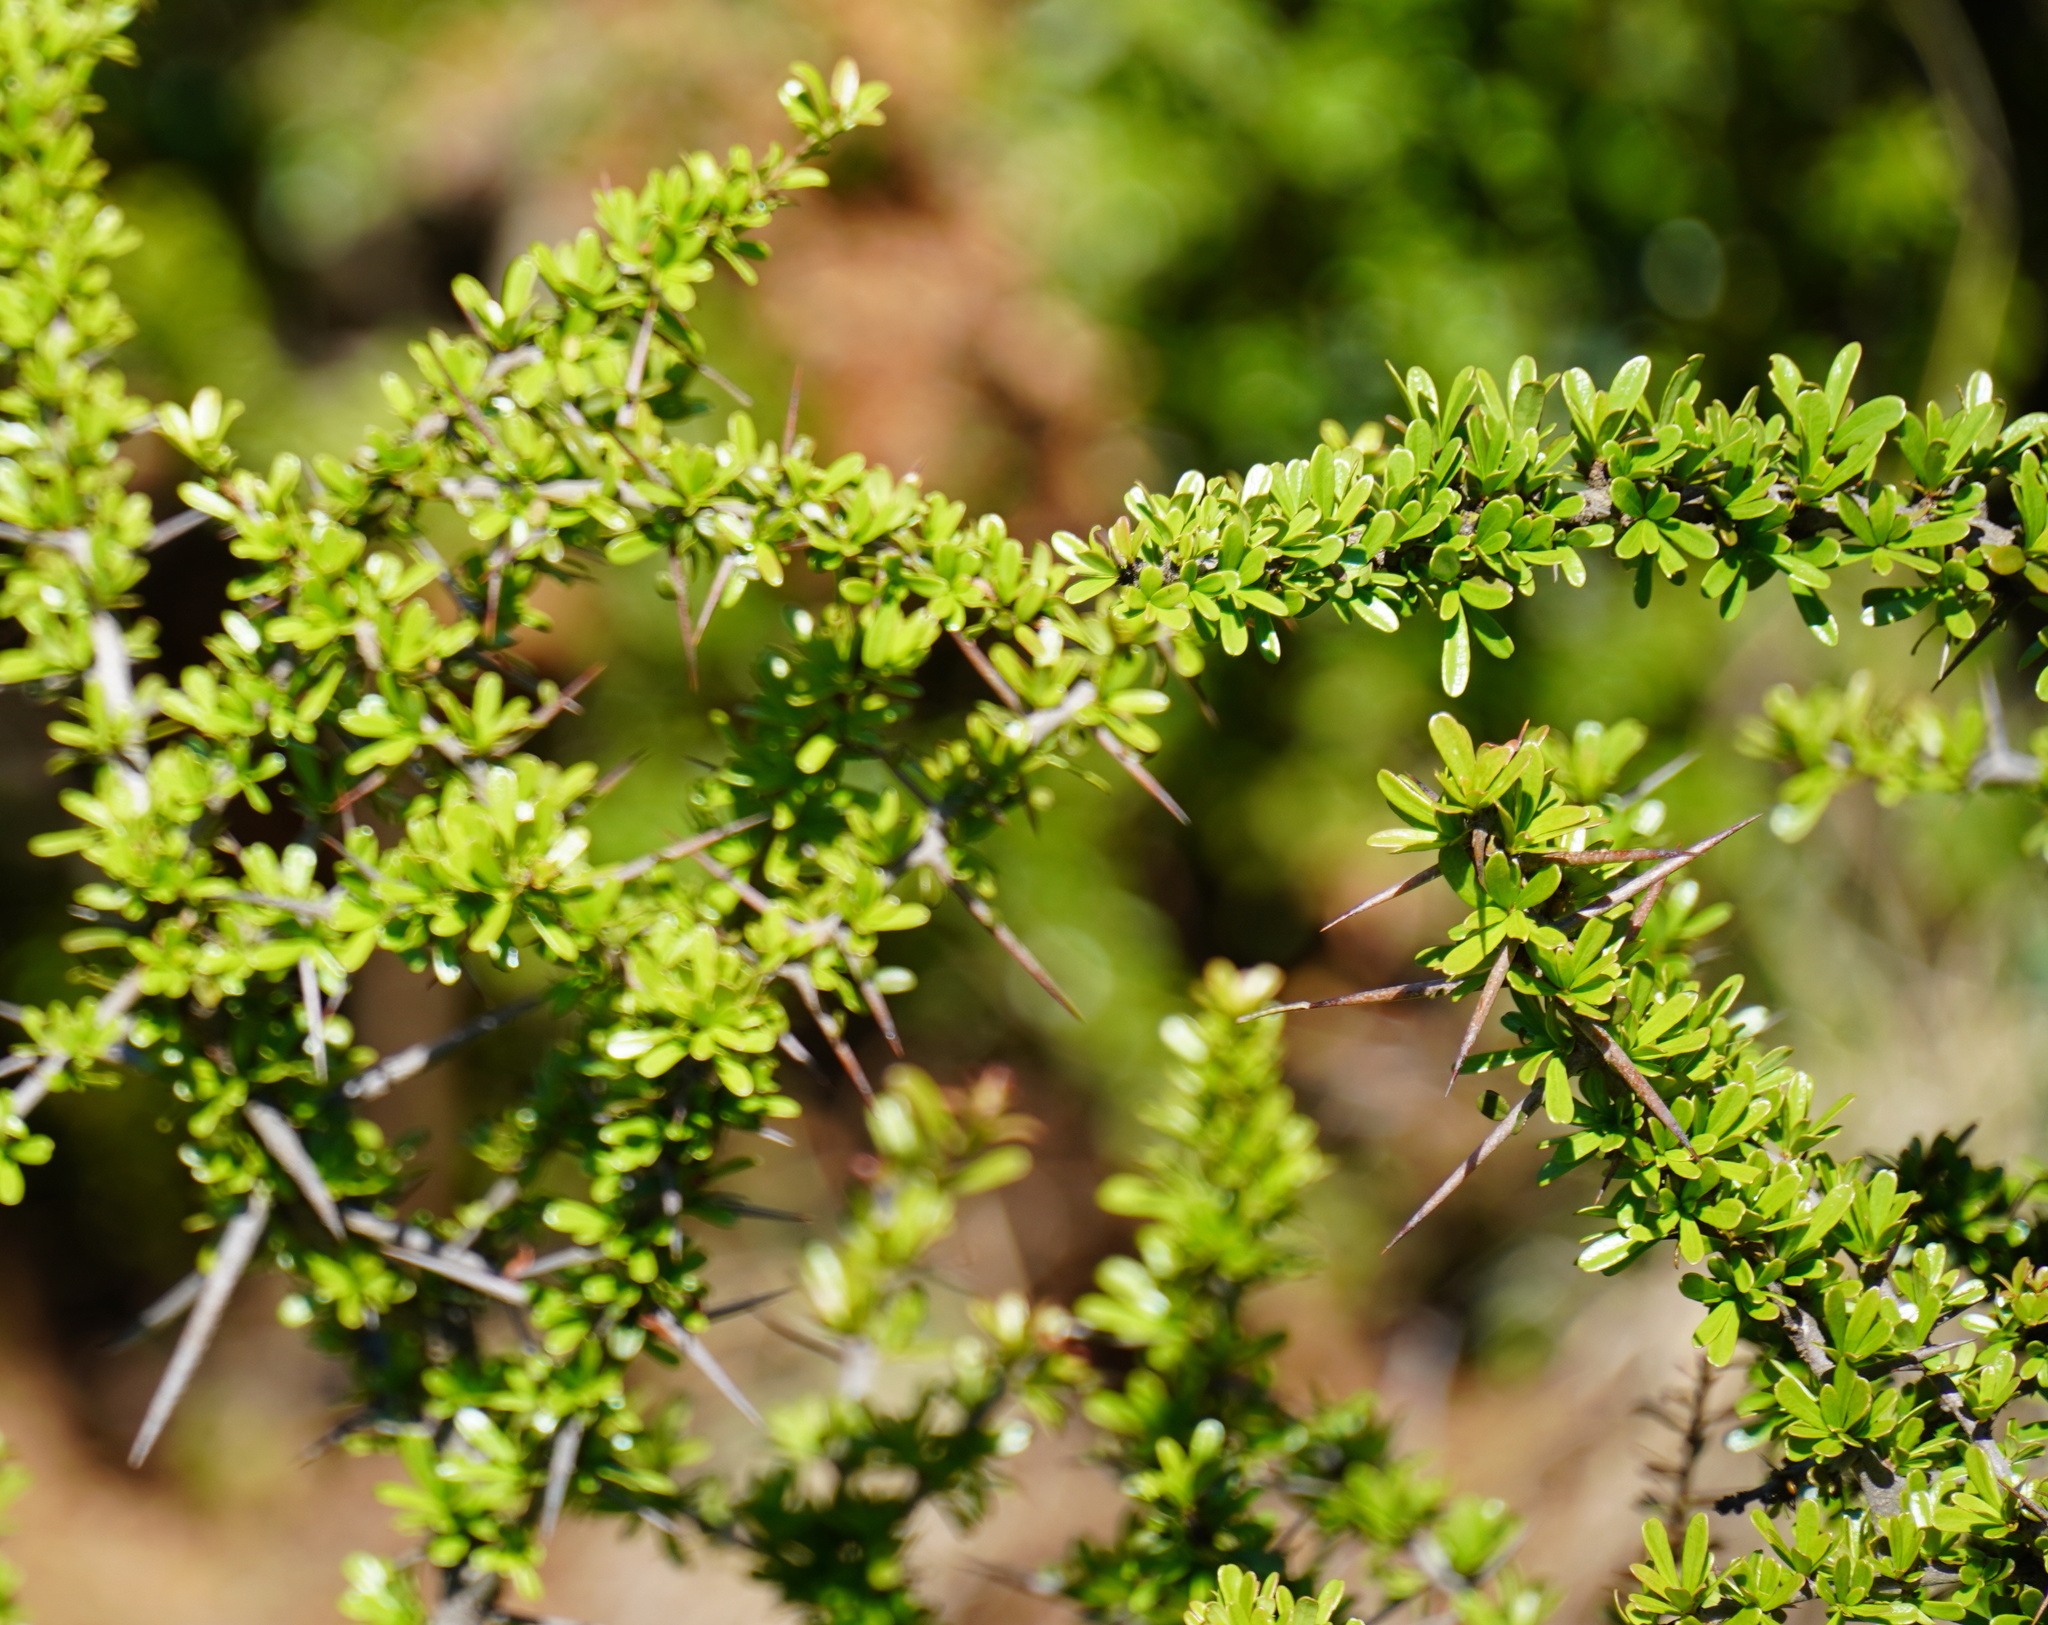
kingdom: Plantae
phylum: Tracheophyta
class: Magnoliopsida
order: Celastrales
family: Celastraceae
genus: Gymnosporia
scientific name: Gymnosporia polyacantha
